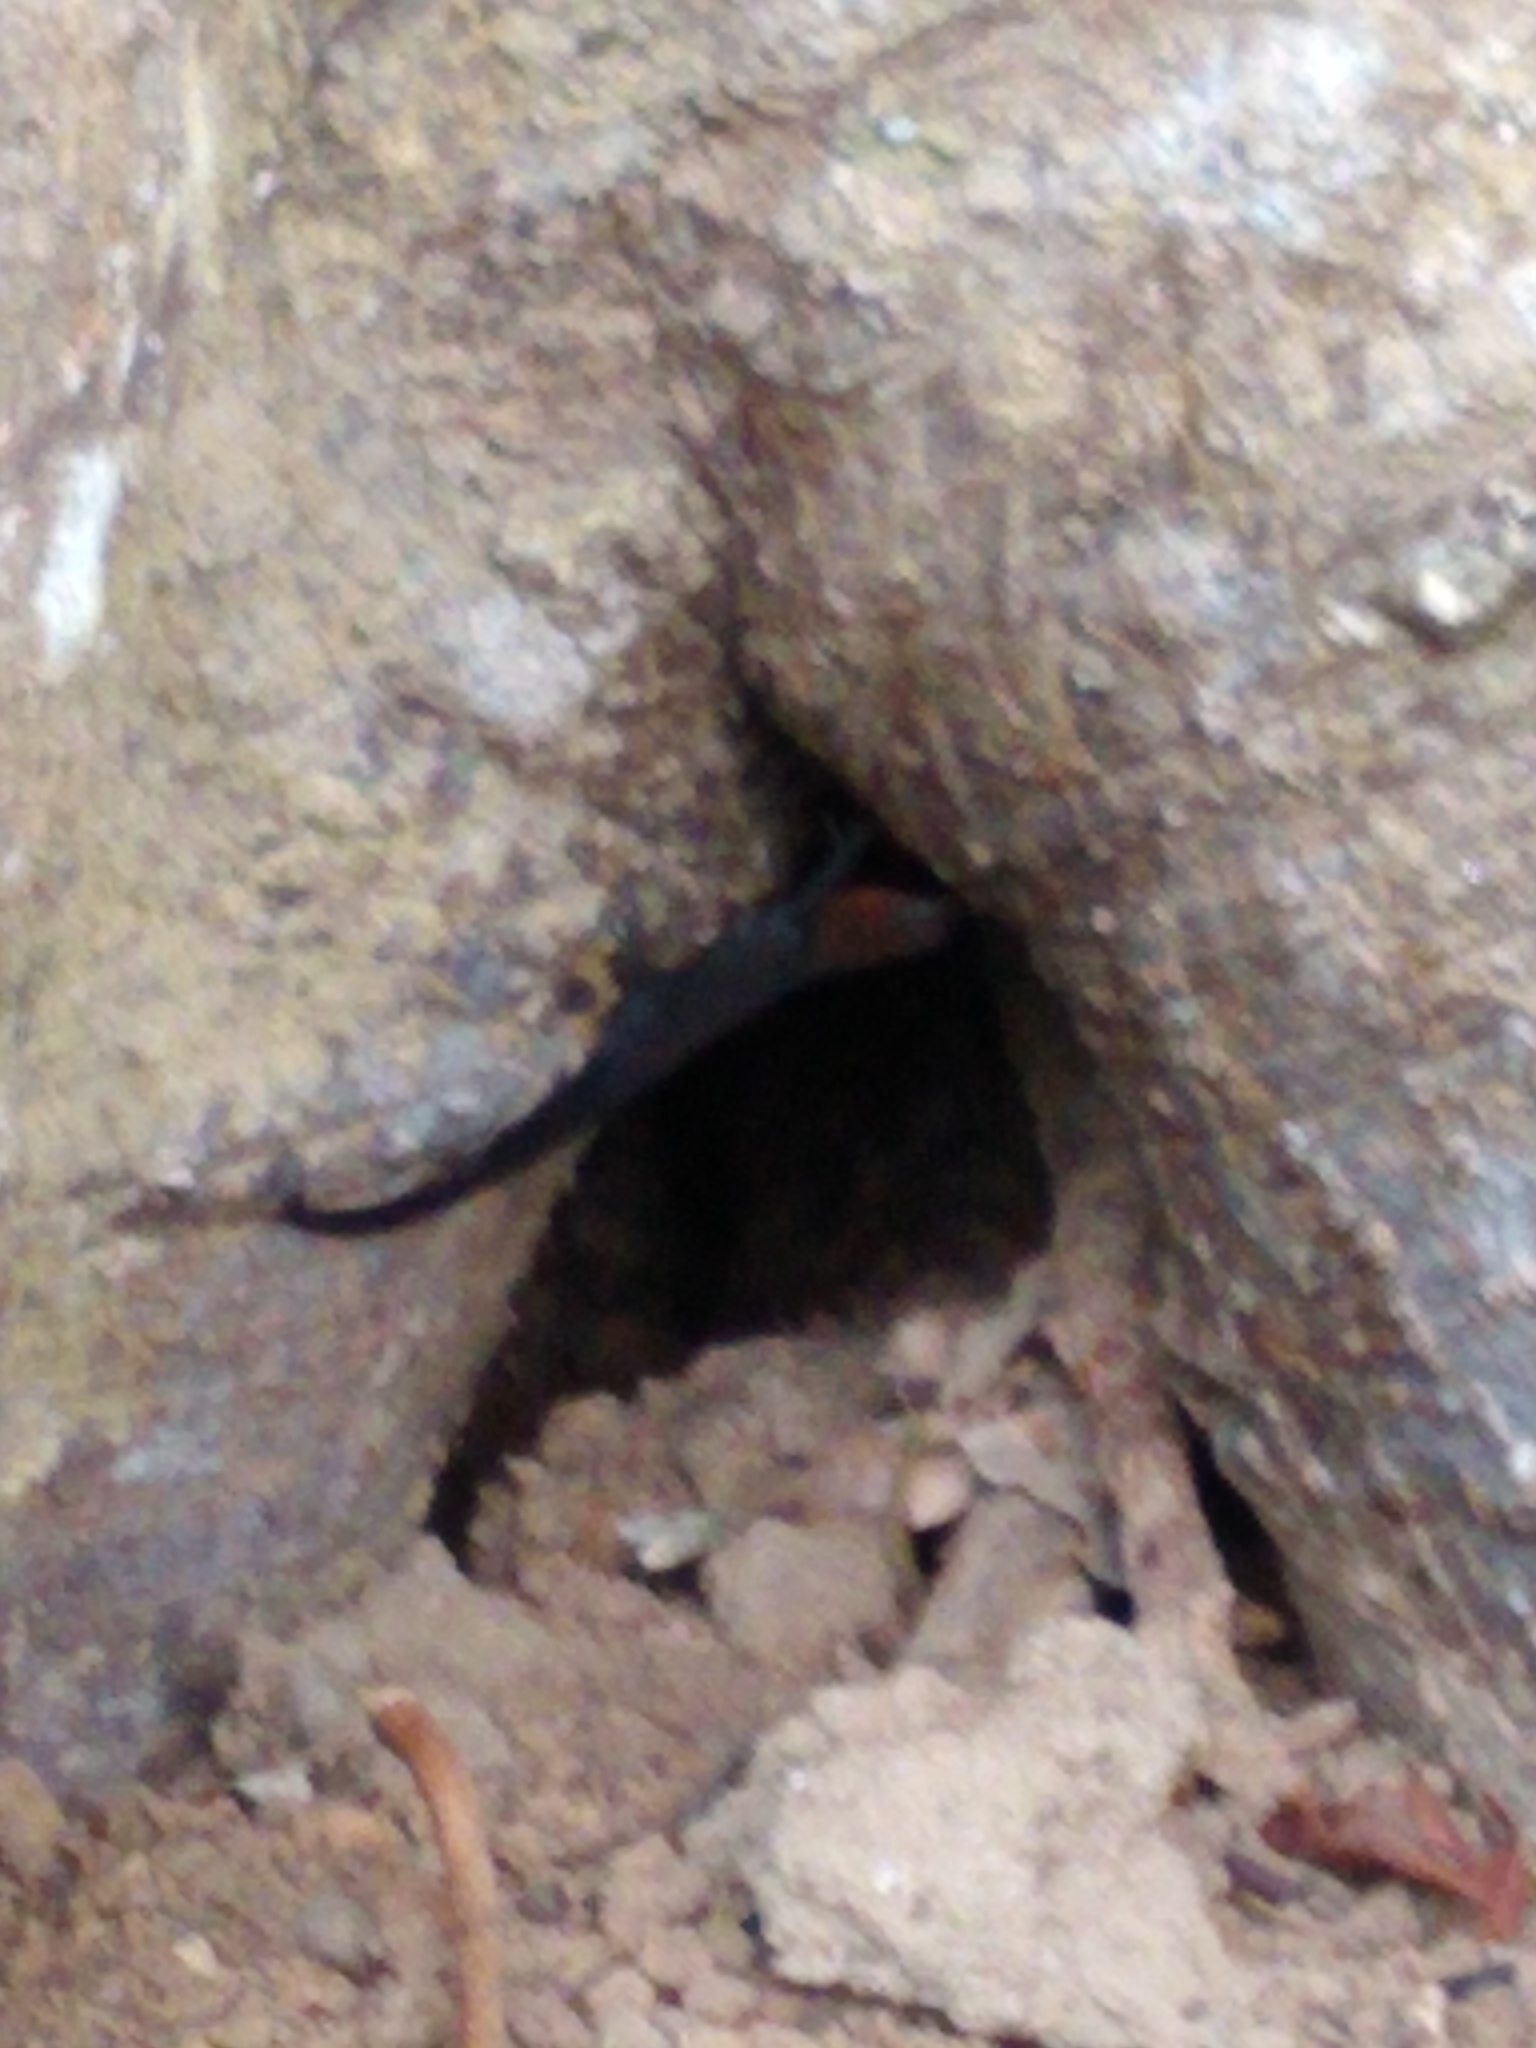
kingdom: Animalia
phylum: Chordata
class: Squamata
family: Sphaerodactylidae
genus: Gonatodes
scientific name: Gonatodes albogularis
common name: Yellow-headed gecko
